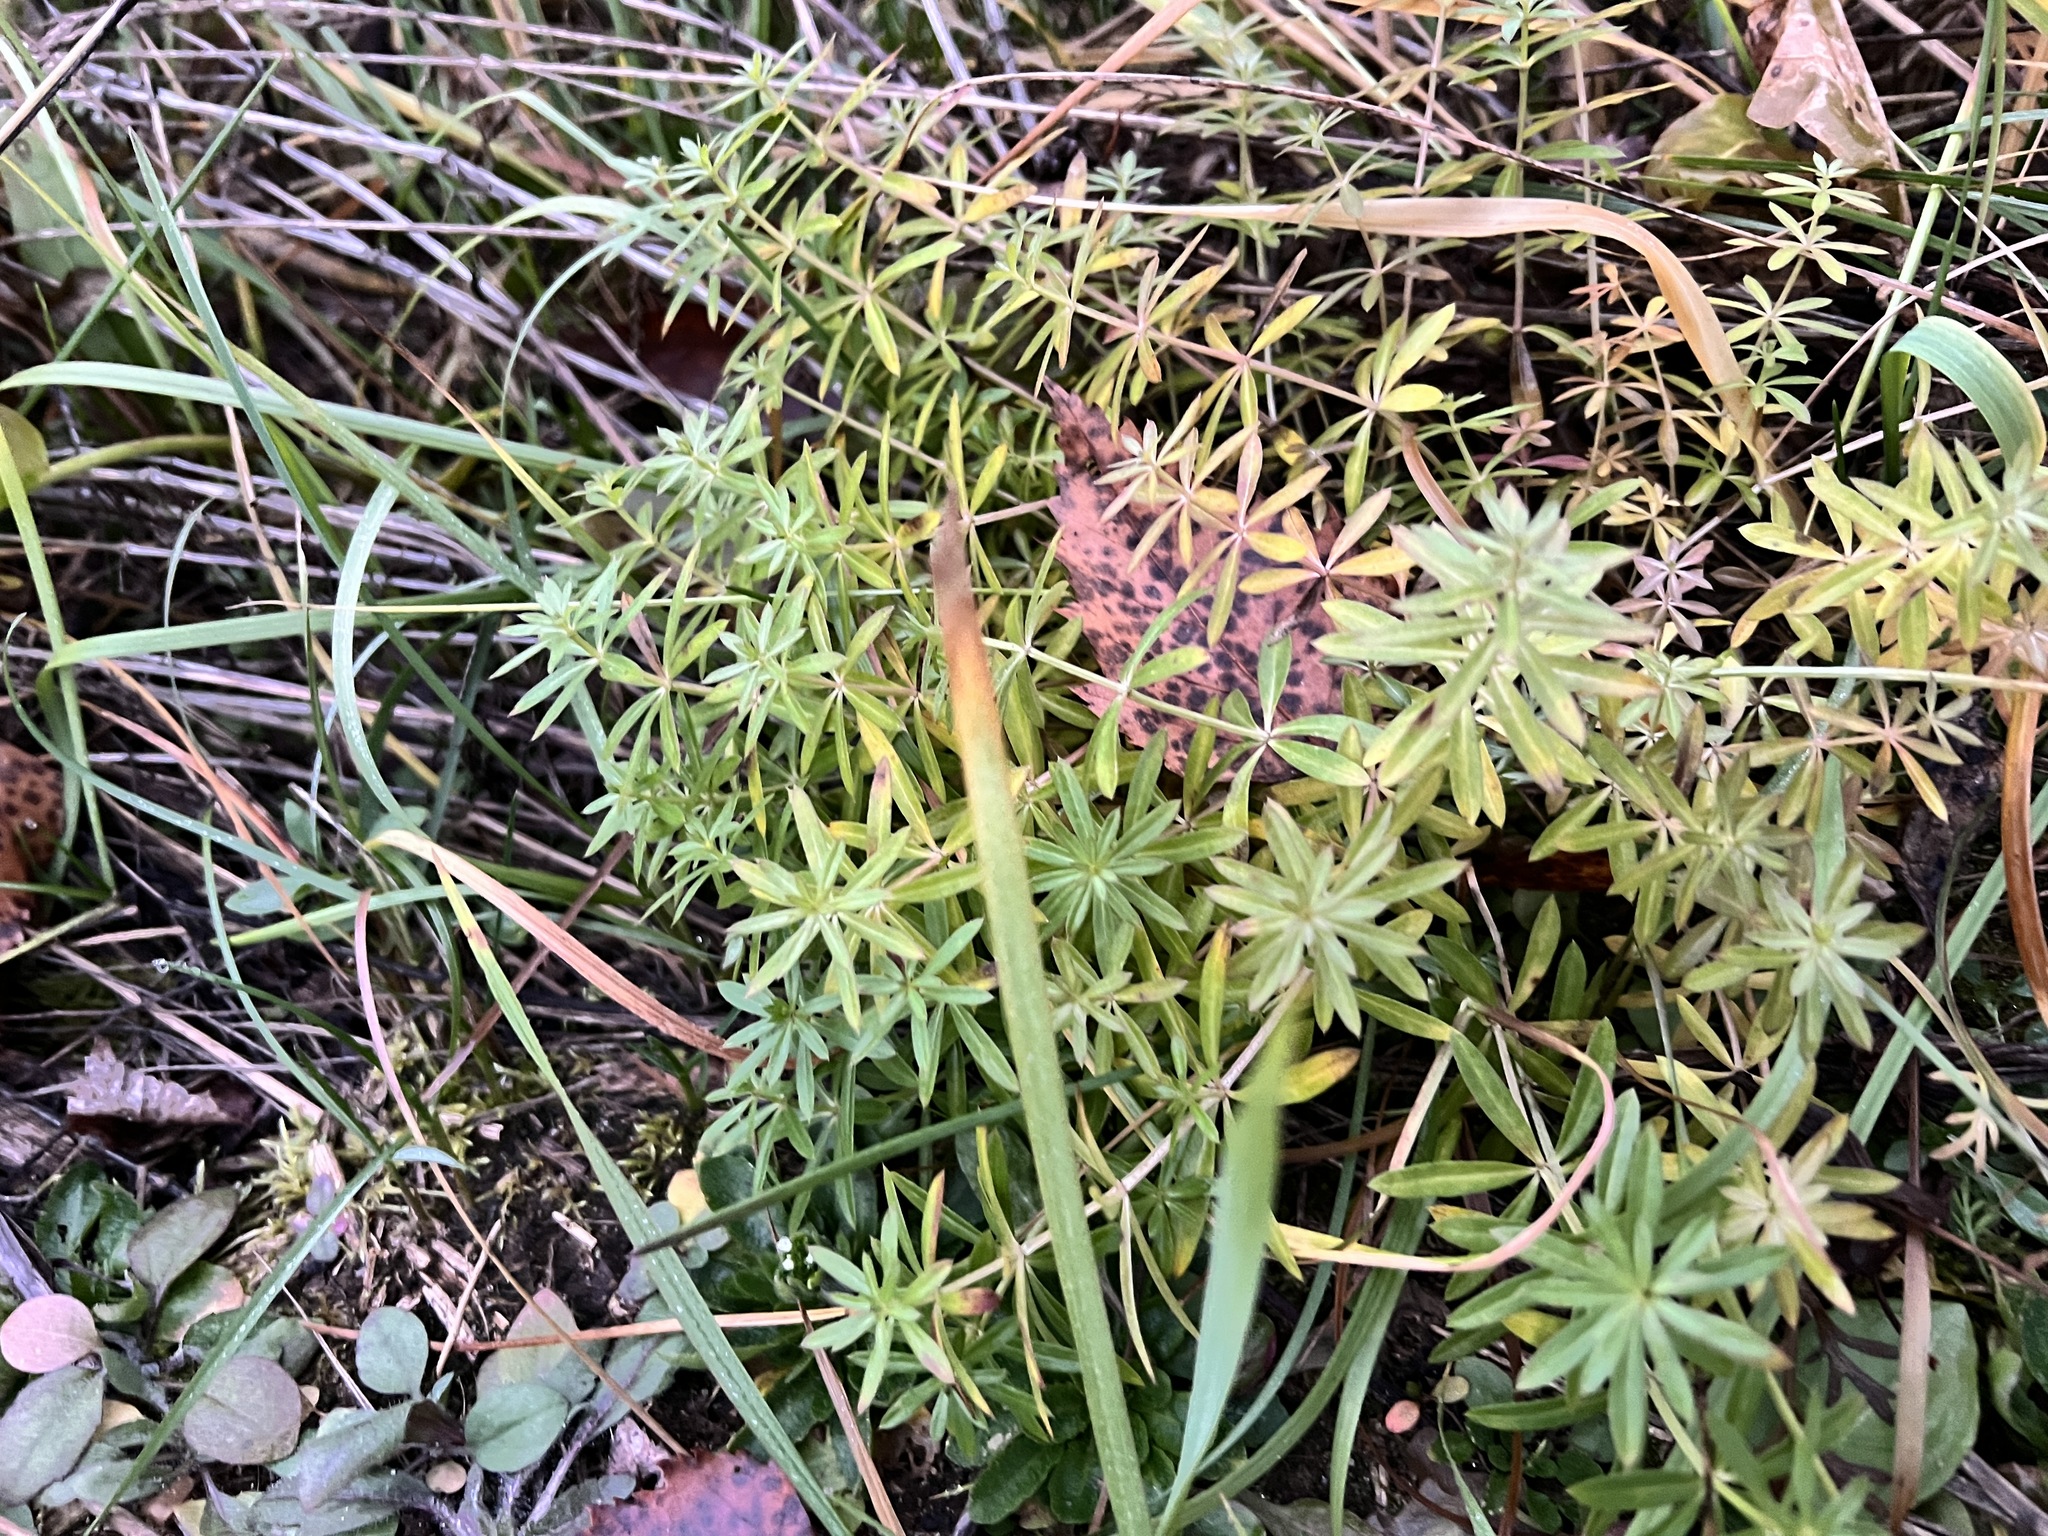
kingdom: Plantae
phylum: Tracheophyta
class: Magnoliopsida
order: Gentianales
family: Rubiaceae
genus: Galium
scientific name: Galium mollugo
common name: Hedge bedstraw
